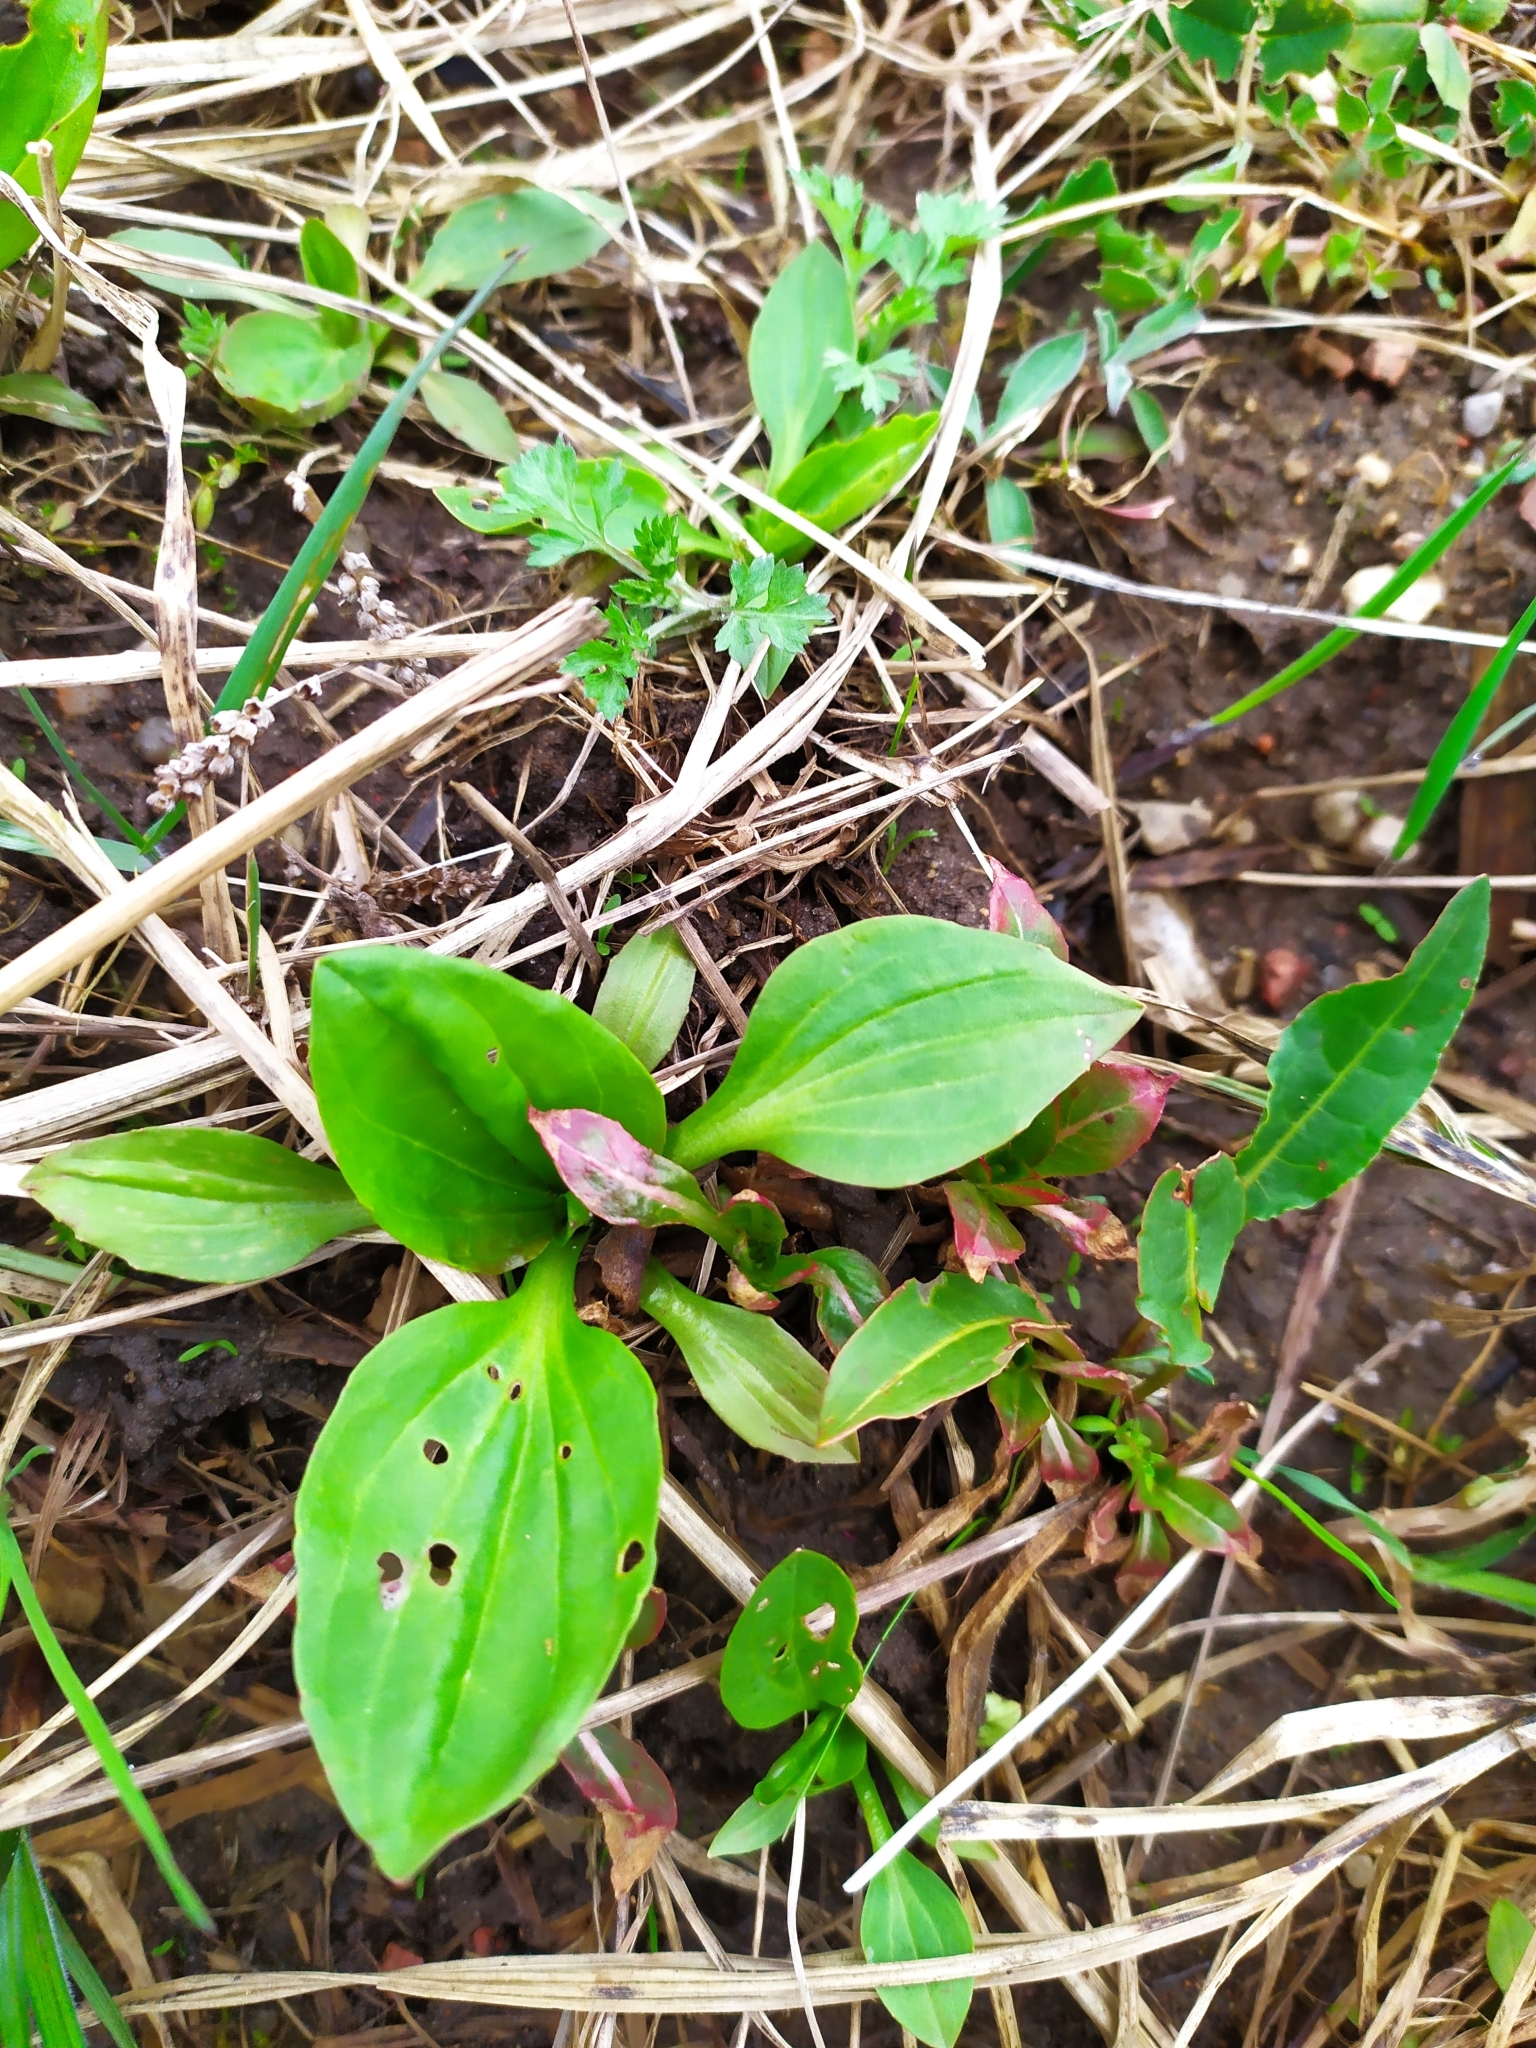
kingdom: Plantae
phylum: Tracheophyta
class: Magnoliopsida
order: Lamiales
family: Plantaginaceae
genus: Plantago
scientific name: Plantago major
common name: Common plantain
